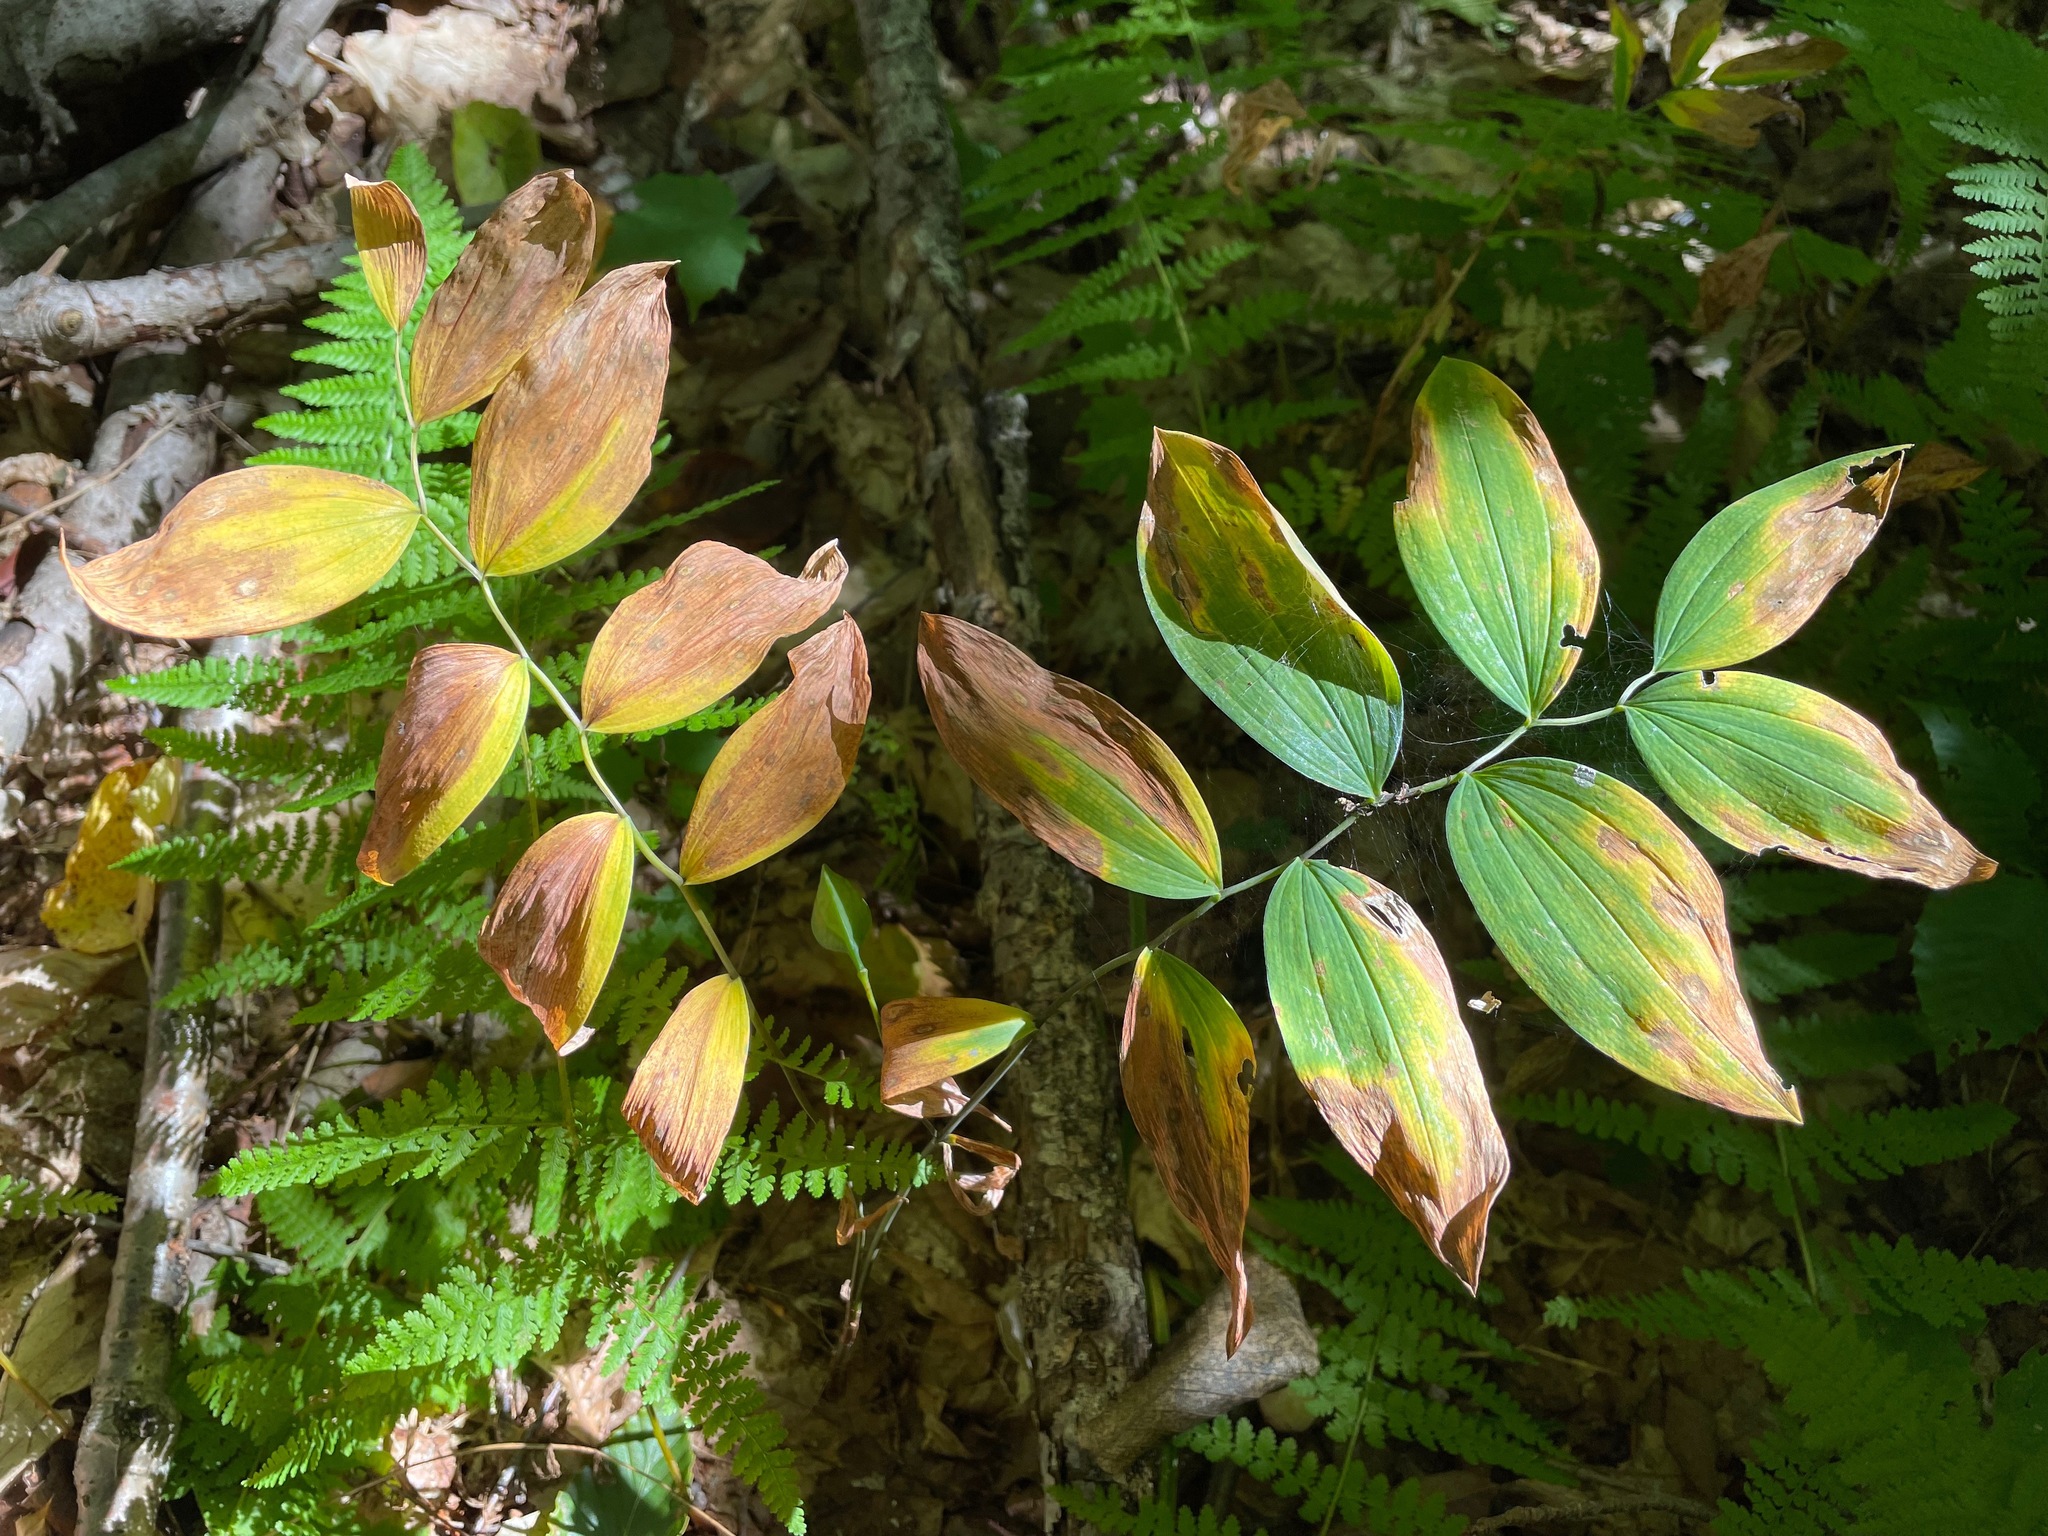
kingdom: Plantae
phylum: Tracheophyta
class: Liliopsida
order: Liliales
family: Colchicaceae
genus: Uvularia
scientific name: Uvularia sessilifolia
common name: Straw-lily
